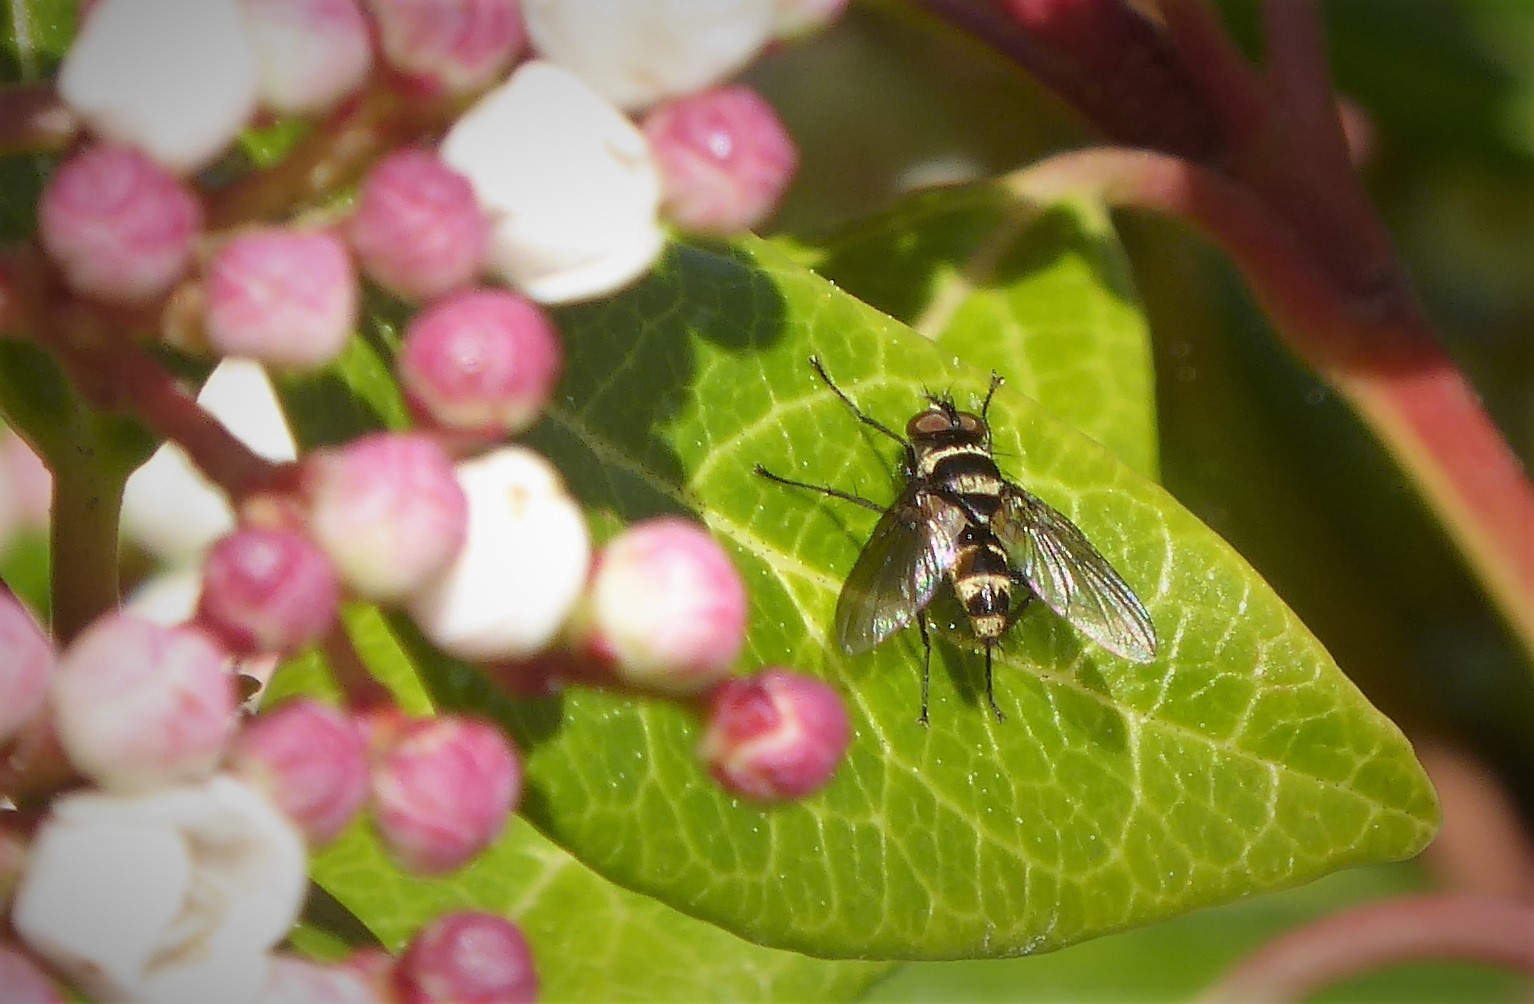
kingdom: Animalia
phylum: Arthropoda
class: Insecta
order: Diptera
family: Tachinidae
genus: Trigonospila
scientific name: Trigonospila brevifacies
